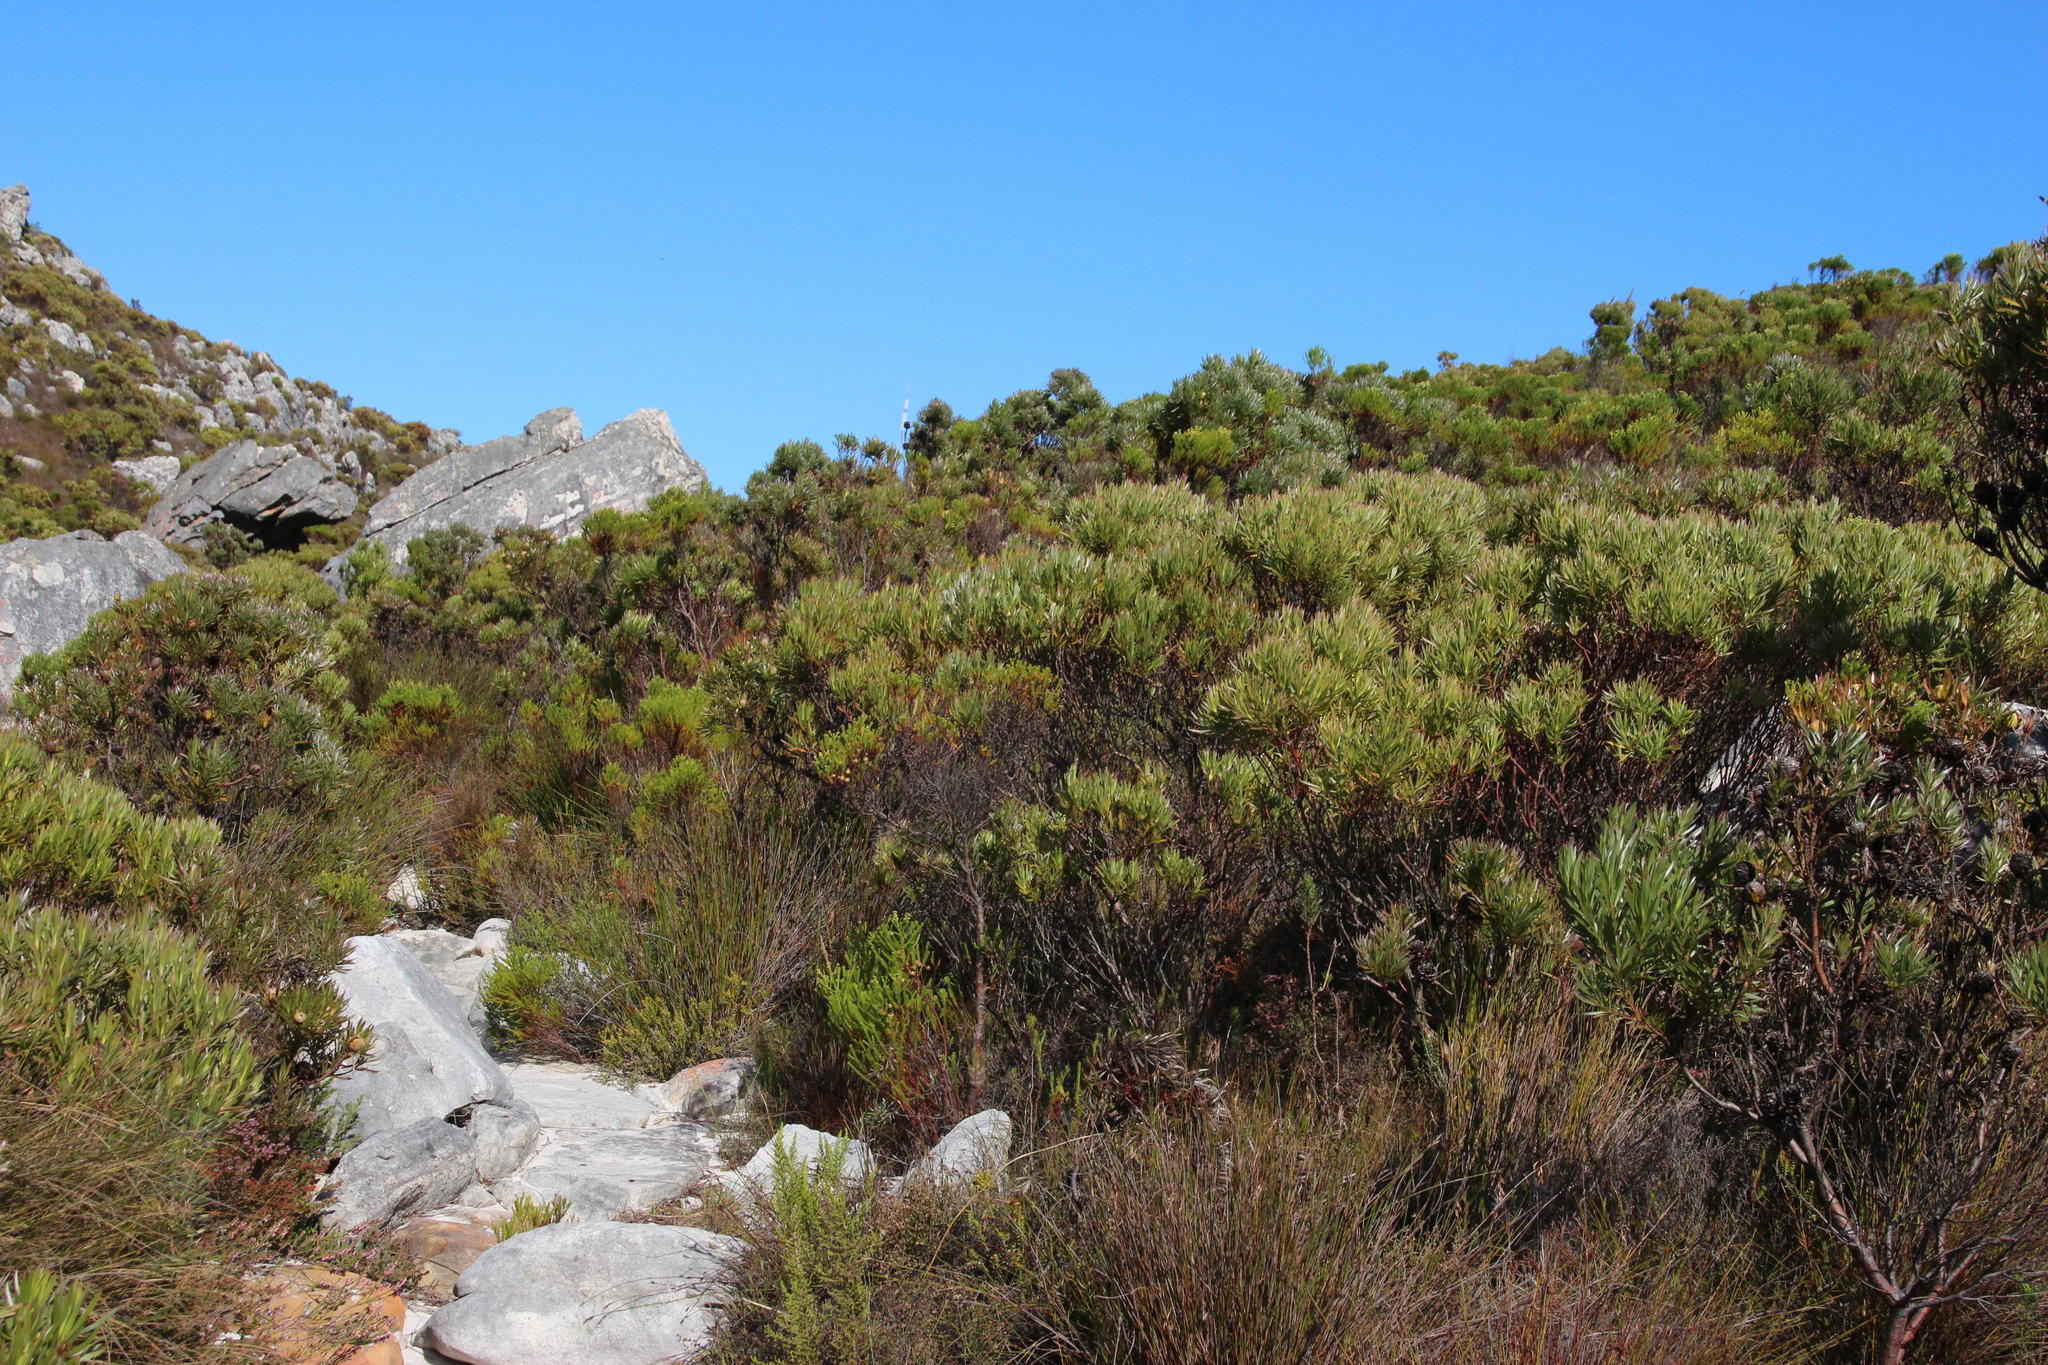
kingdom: Plantae
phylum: Tracheophyta
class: Magnoliopsida
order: Proteales
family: Proteaceae
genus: Leucadendron
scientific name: Leucadendron xanthoconus
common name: Sickle-leaf conebush
